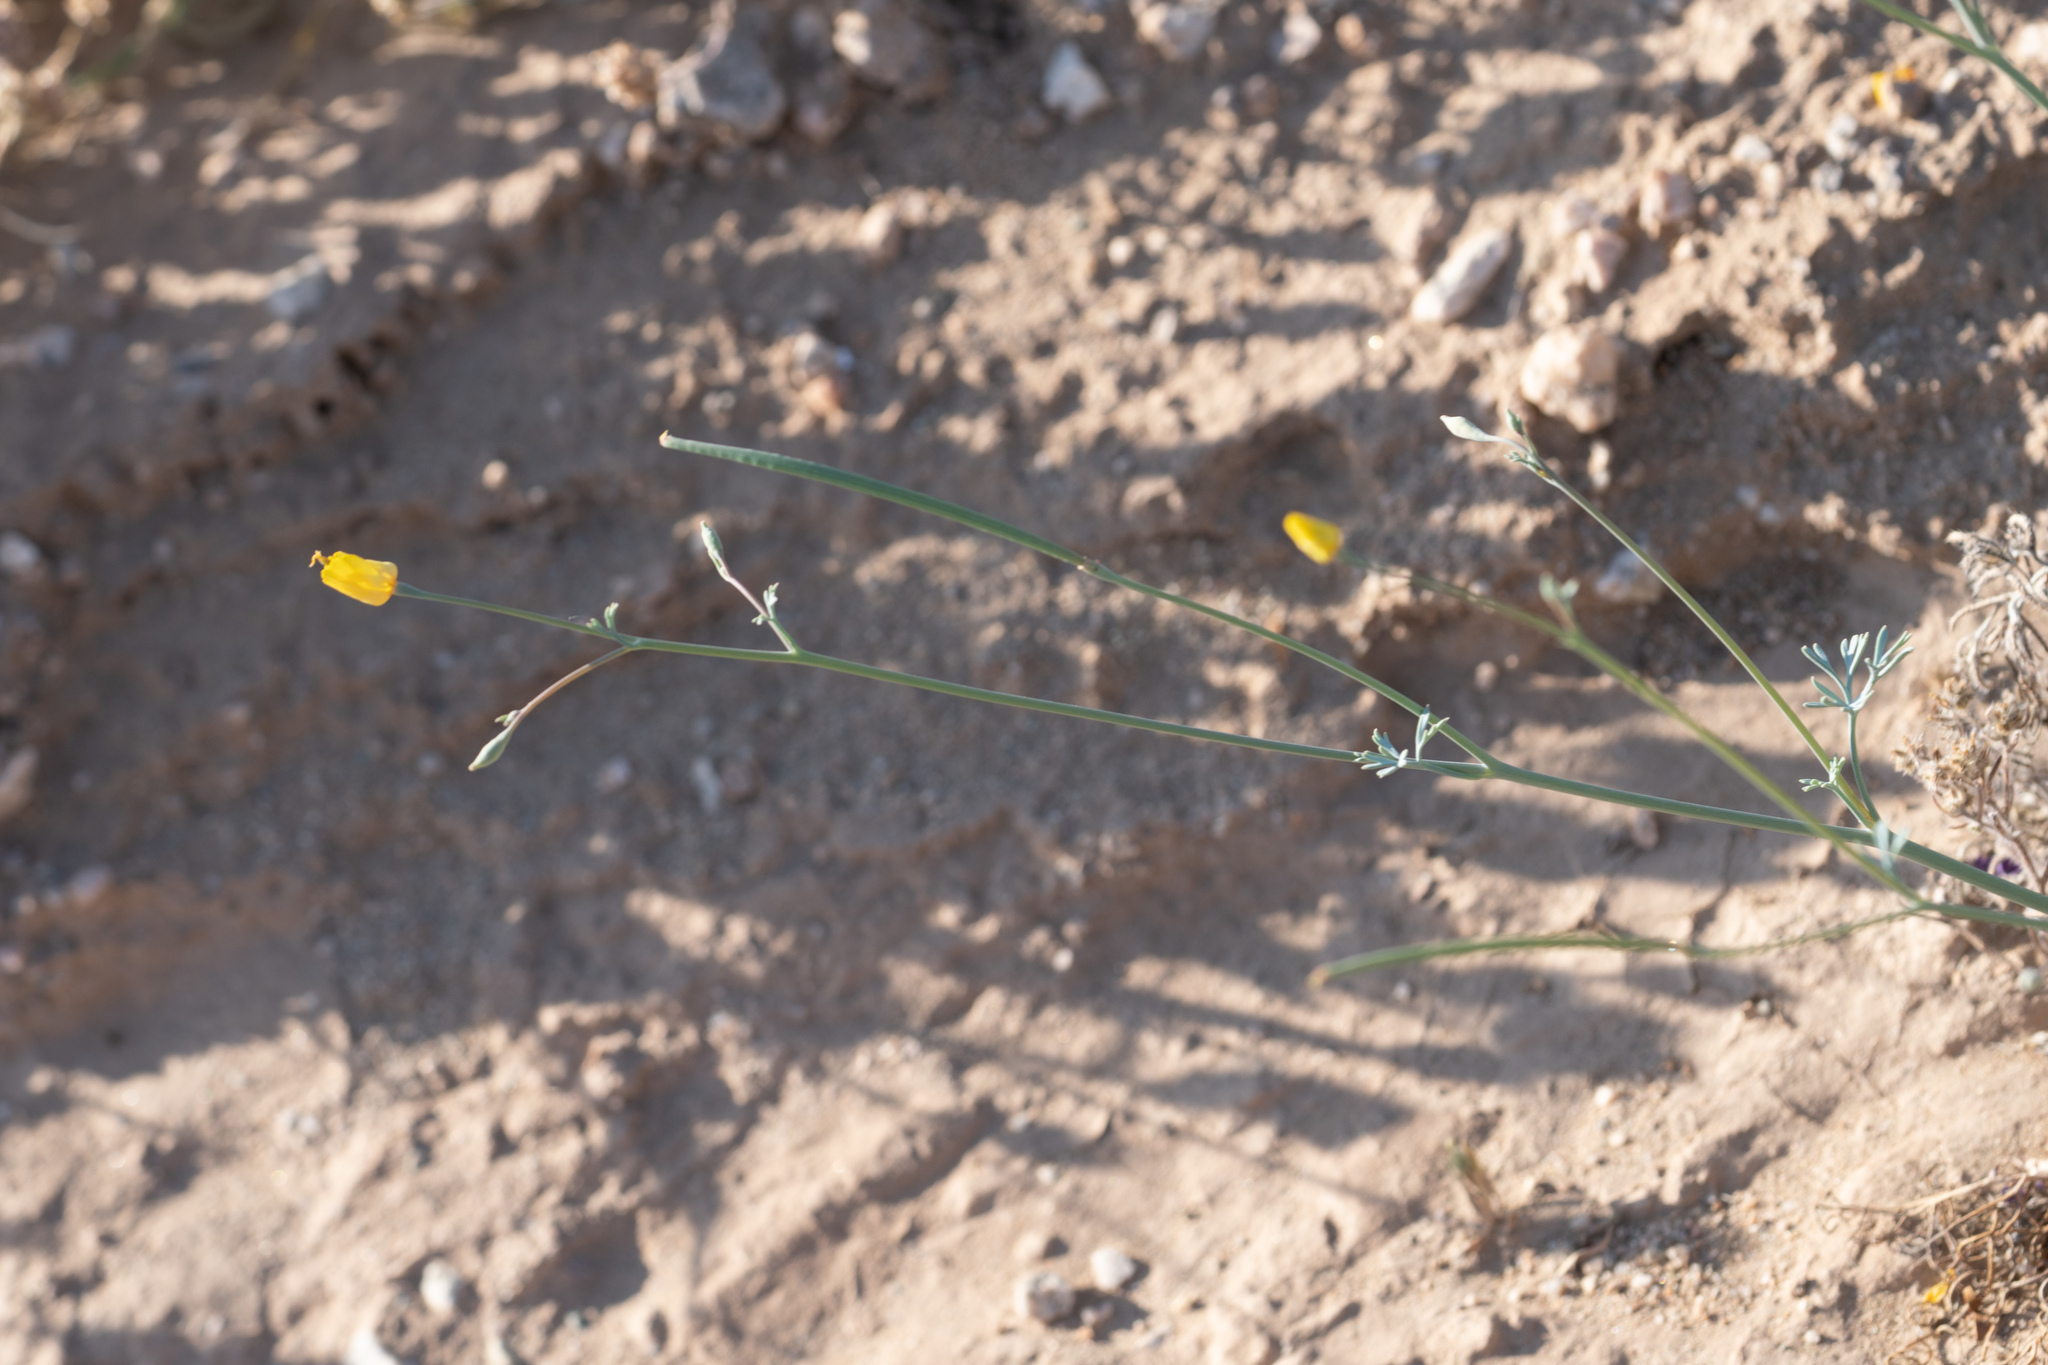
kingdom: Plantae
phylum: Tracheophyta
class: Magnoliopsida
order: Ranunculales
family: Papaveraceae
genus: Eschscholzia
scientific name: Eschscholzia minutiflora
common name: Small-flower california-poppy
